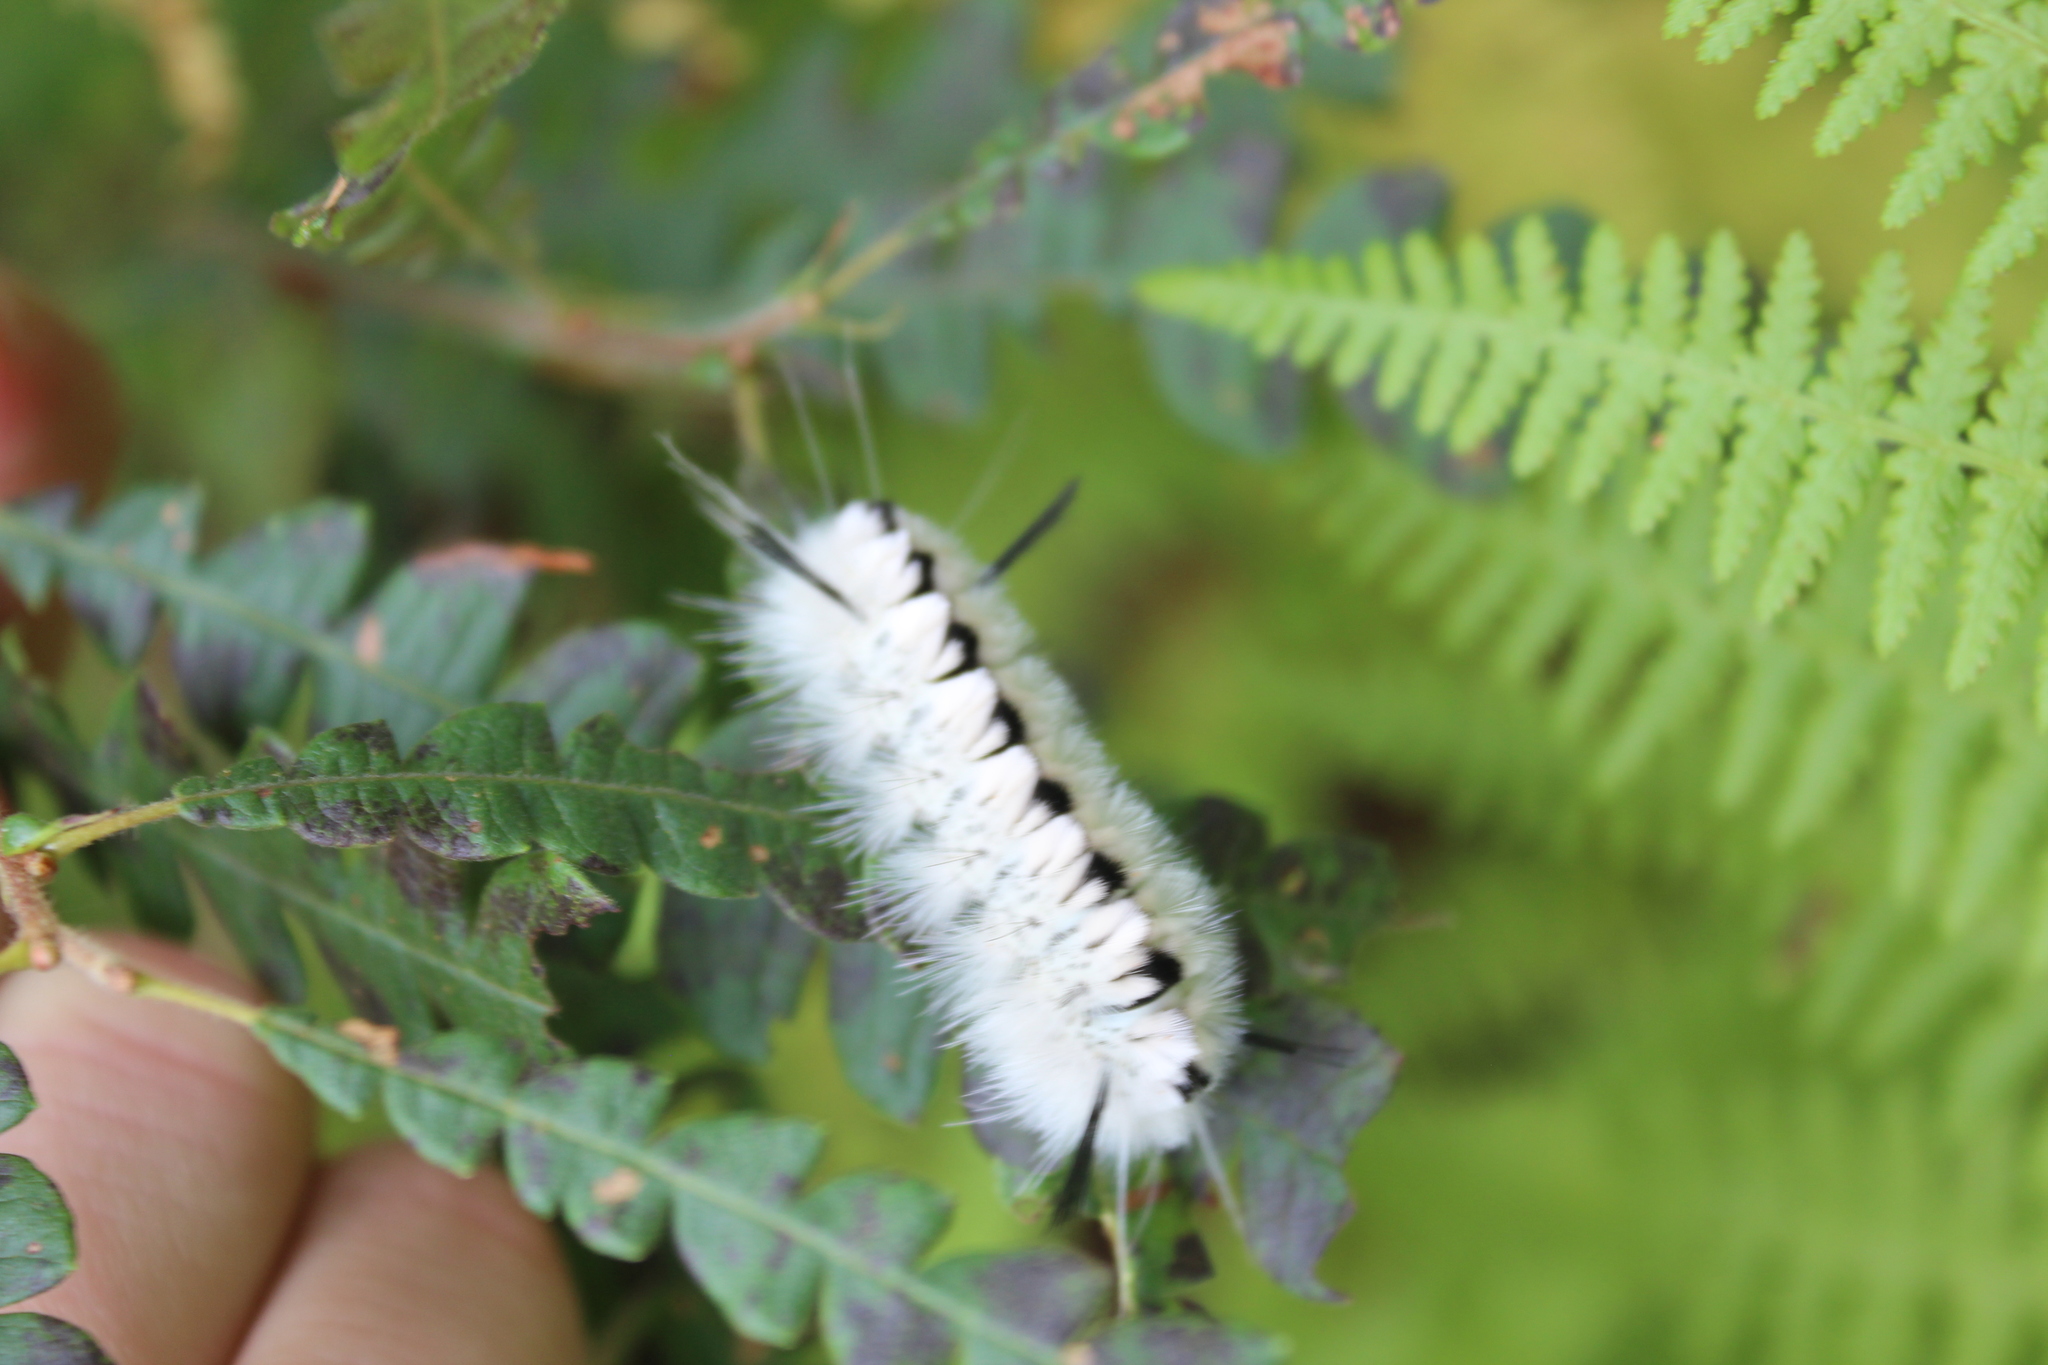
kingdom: Animalia
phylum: Arthropoda
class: Insecta
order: Lepidoptera
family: Erebidae
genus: Lophocampa
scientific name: Lophocampa caryae
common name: Hickory tussock moth
